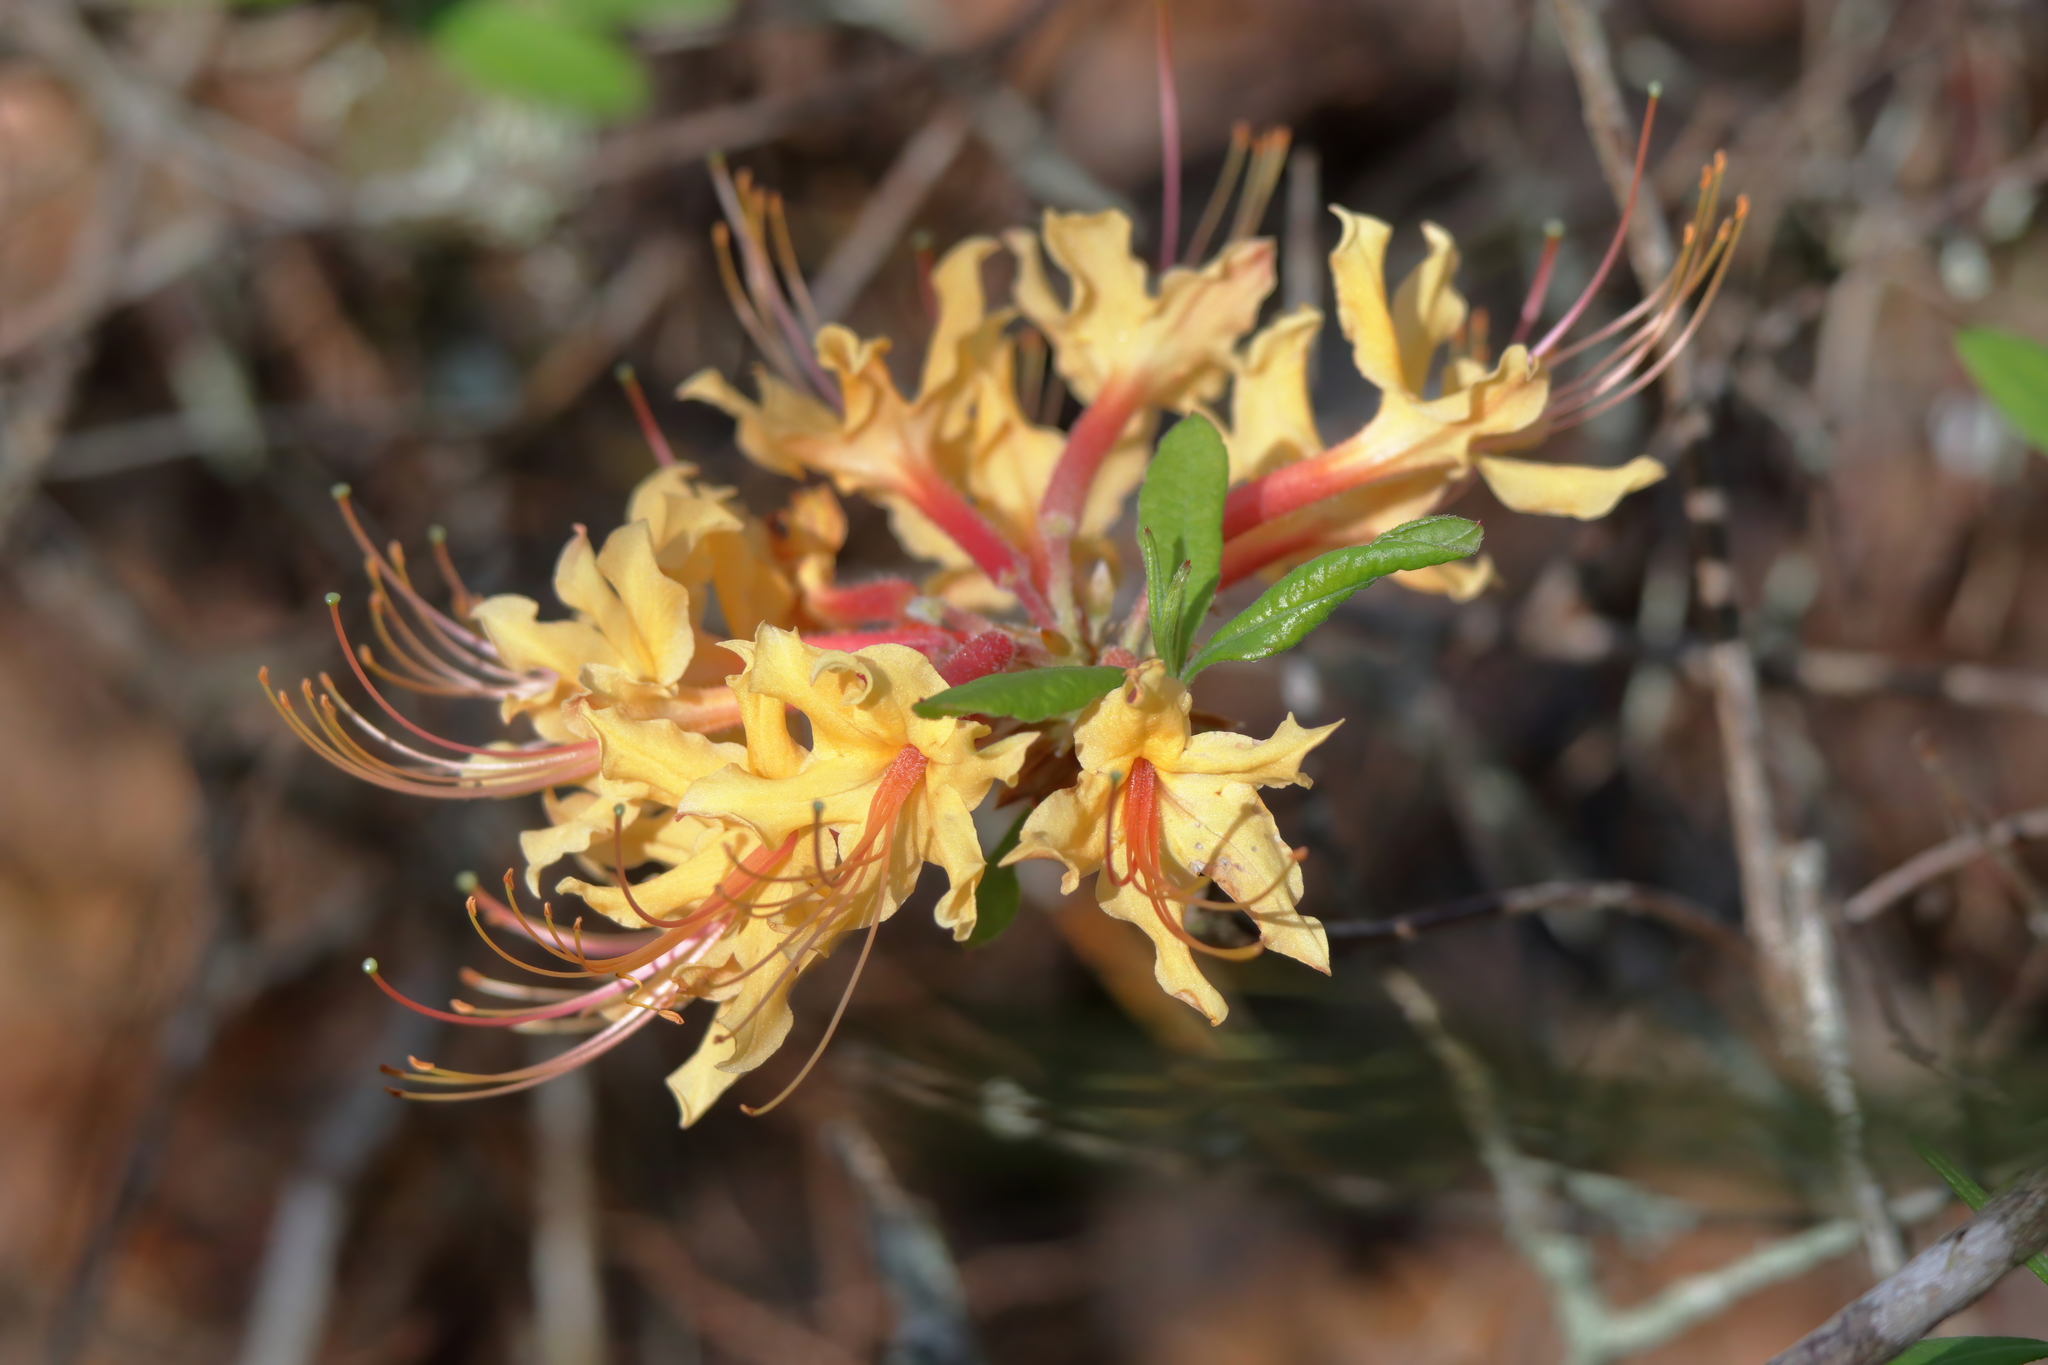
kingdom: Plantae
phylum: Tracheophyta
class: Magnoliopsida
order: Ericales
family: Ericaceae
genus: Rhododendron
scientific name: Rhododendron austrinum
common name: Florida azalea
